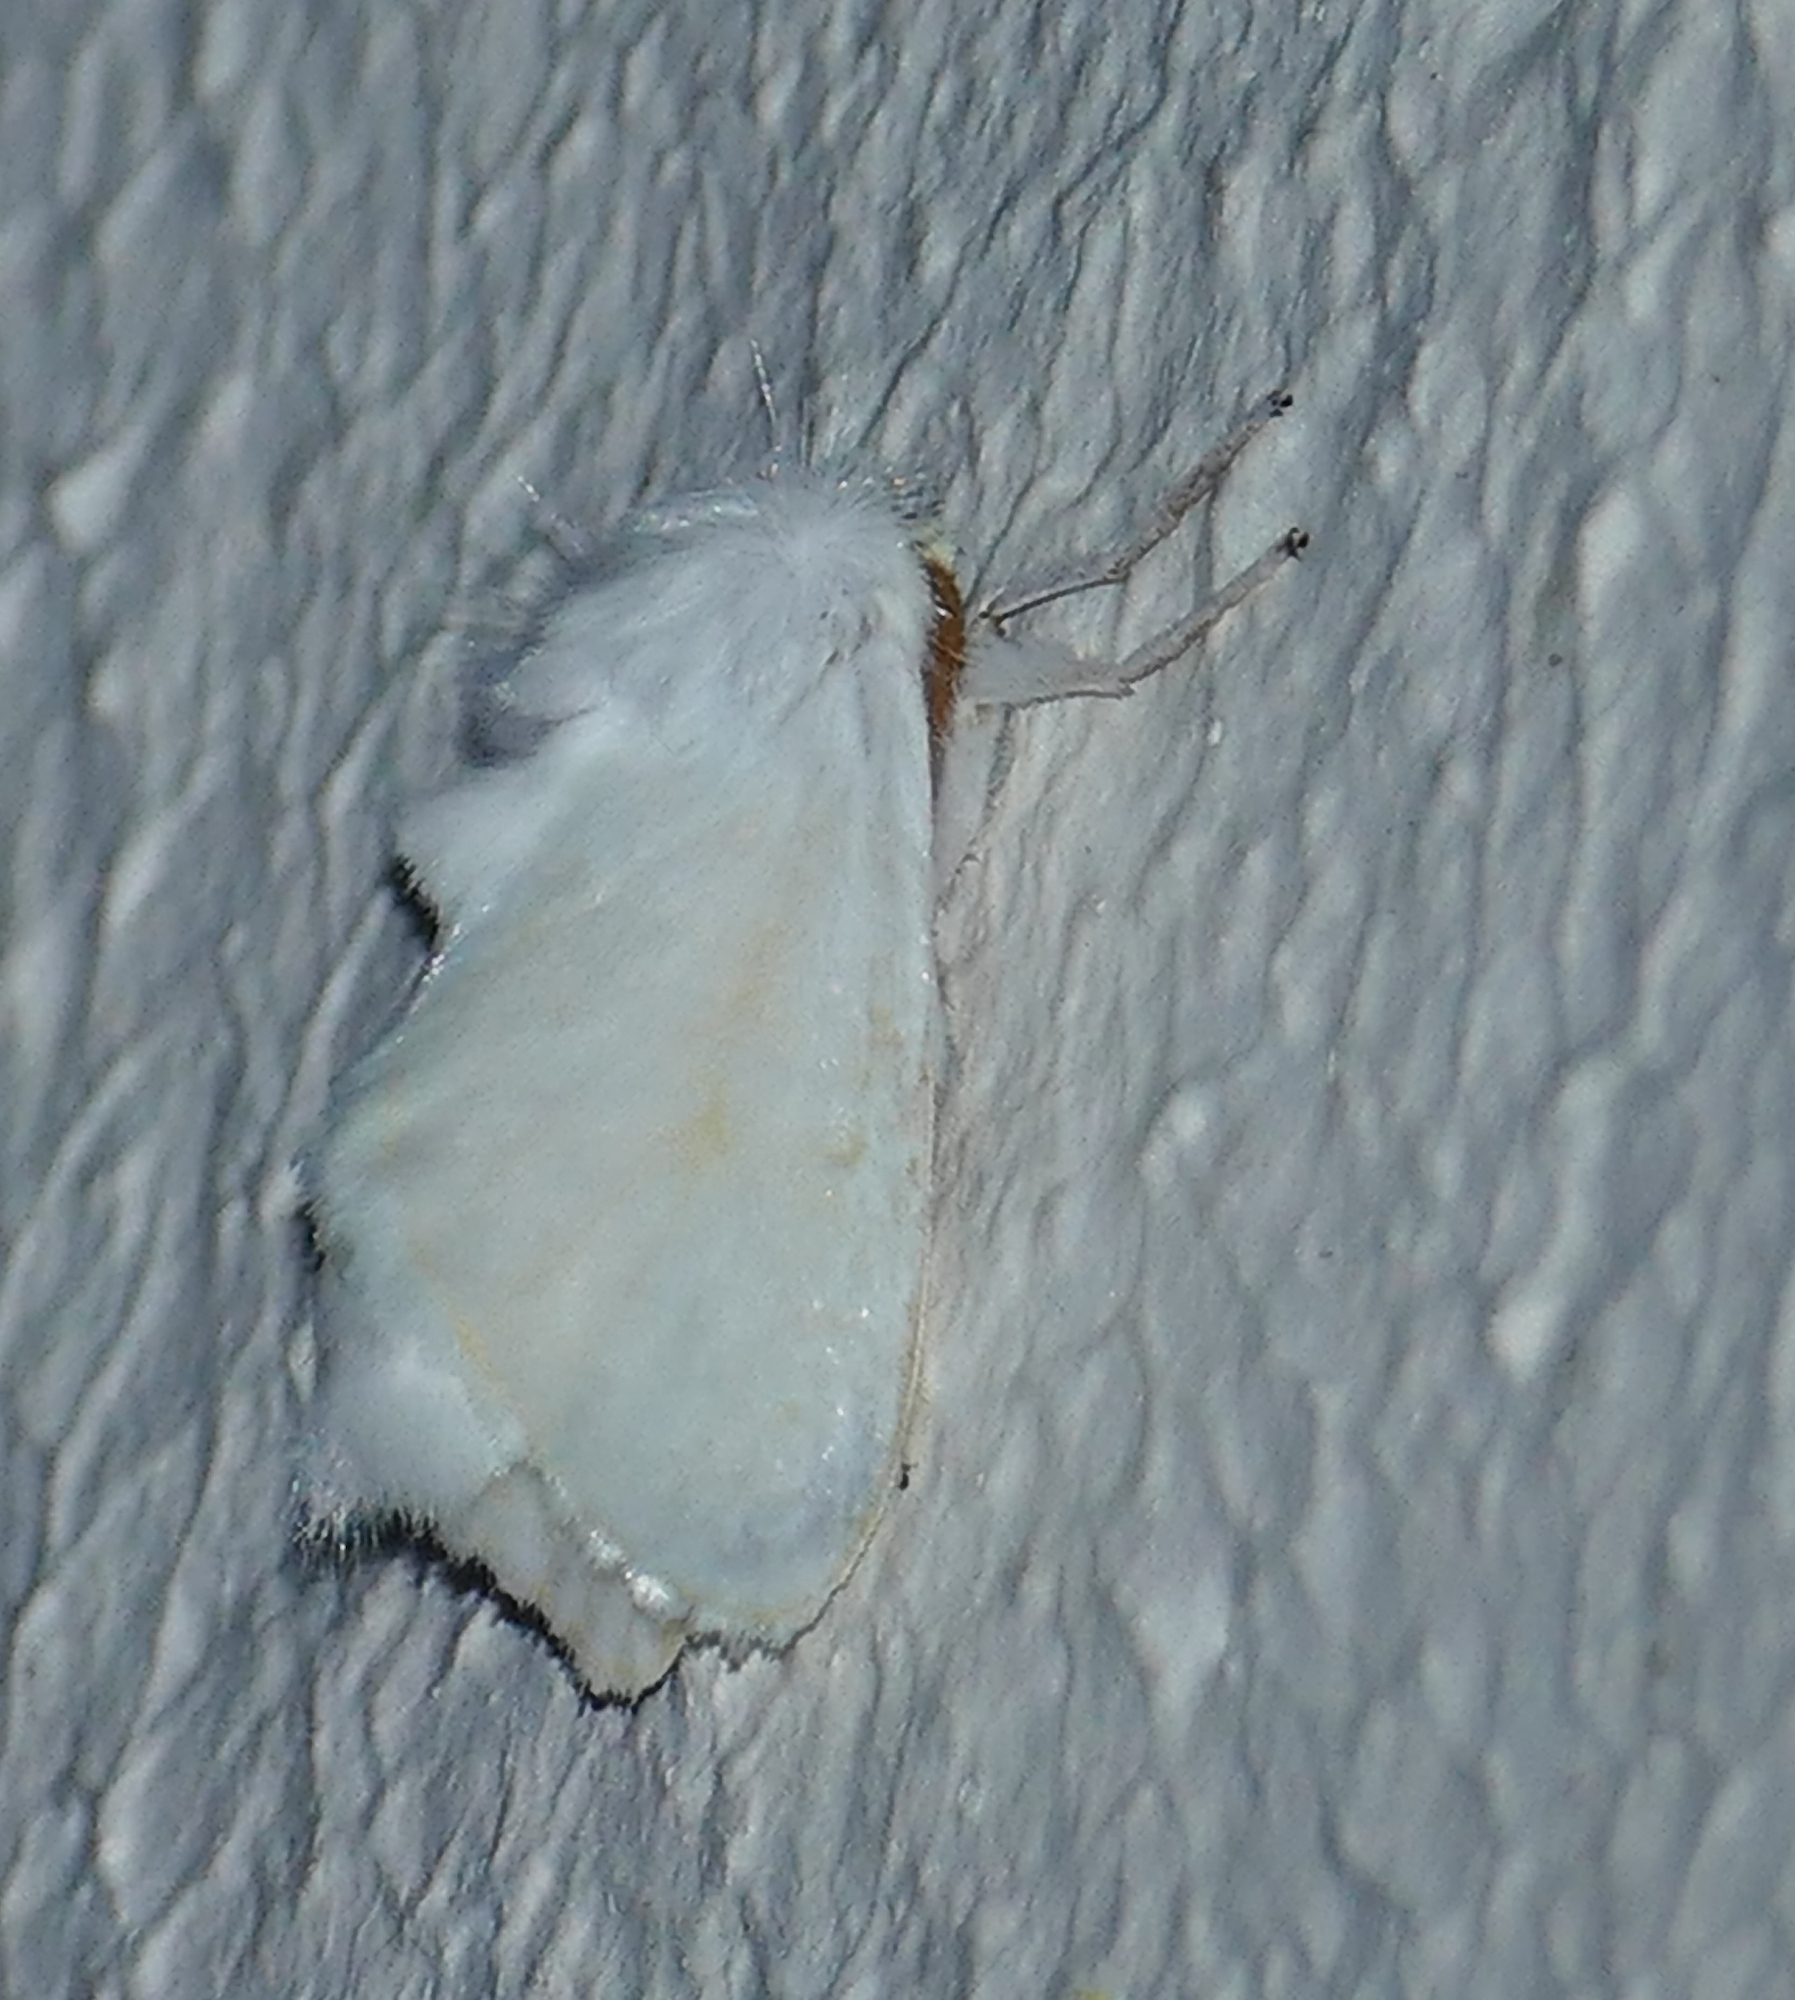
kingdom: Animalia
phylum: Arthropoda
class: Insecta
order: Lepidoptera
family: Megalopygidae
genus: Norape
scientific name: Norape cretata
